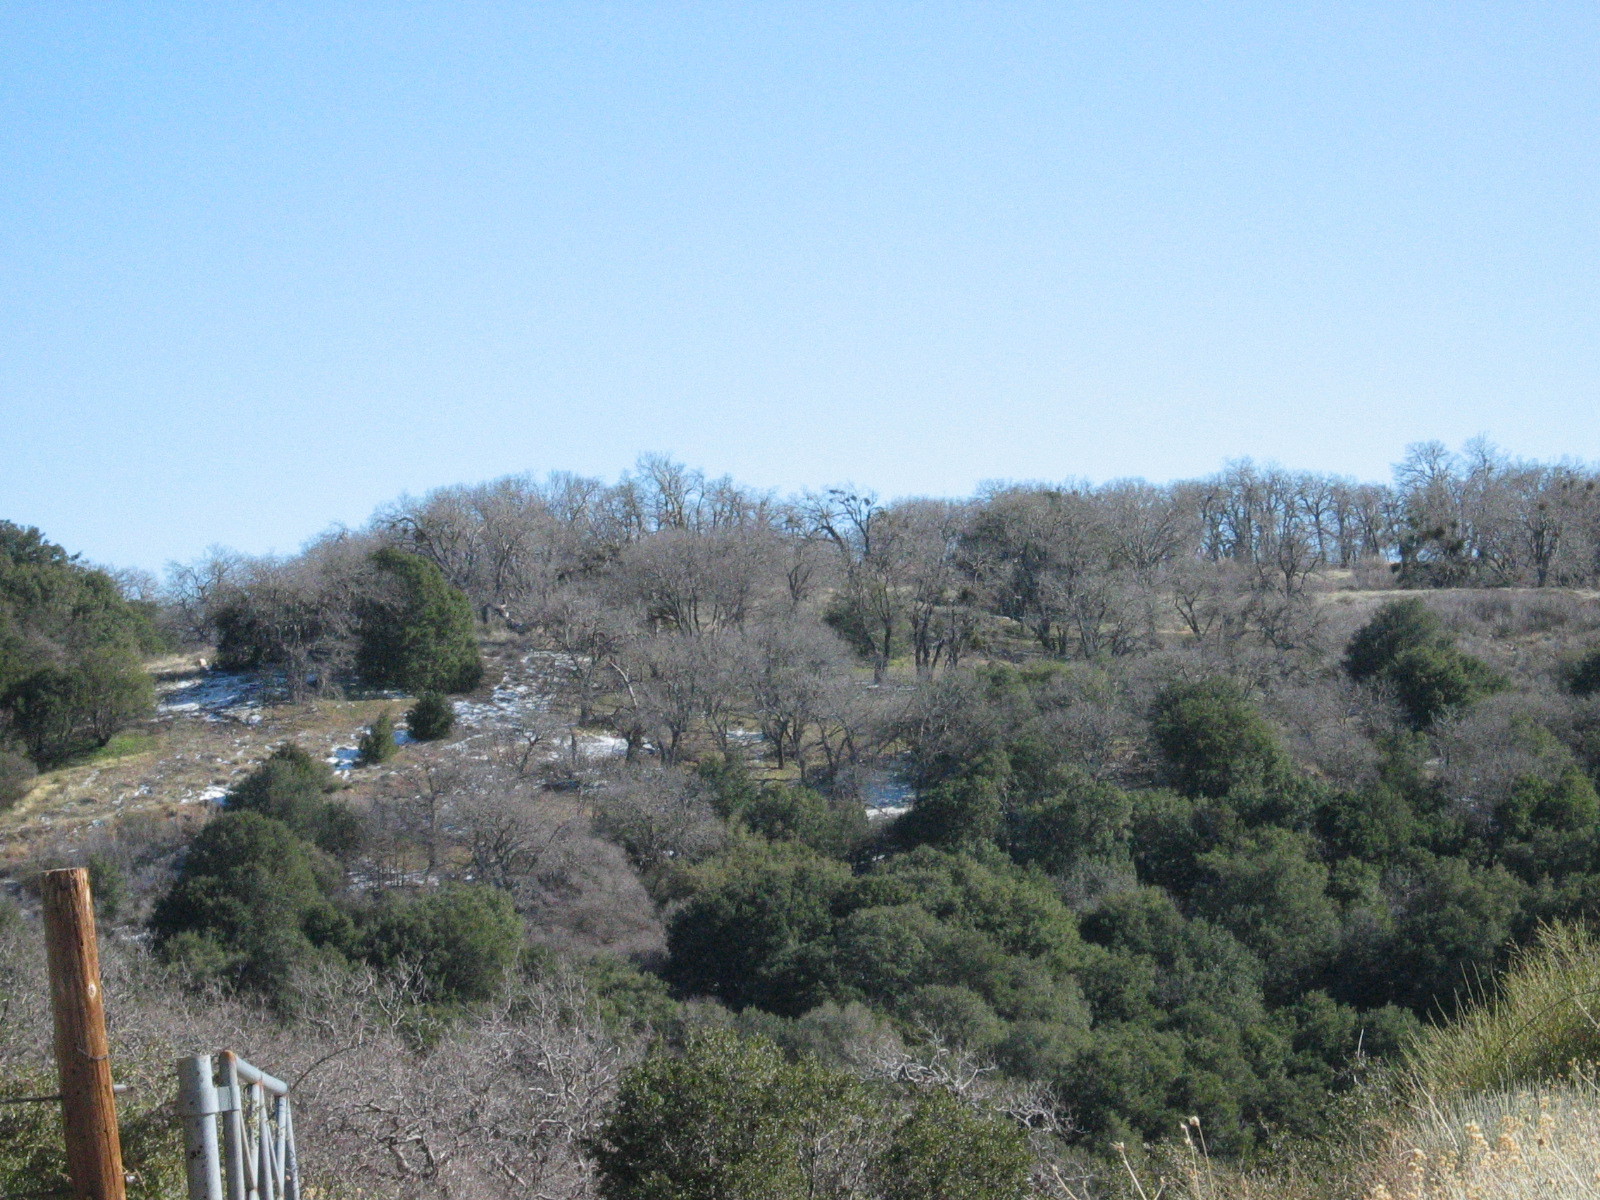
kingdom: Plantae
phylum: Tracheophyta
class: Magnoliopsida
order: Fagales
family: Fagaceae
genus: Quercus
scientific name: Quercus kelloggii
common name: California black oak
